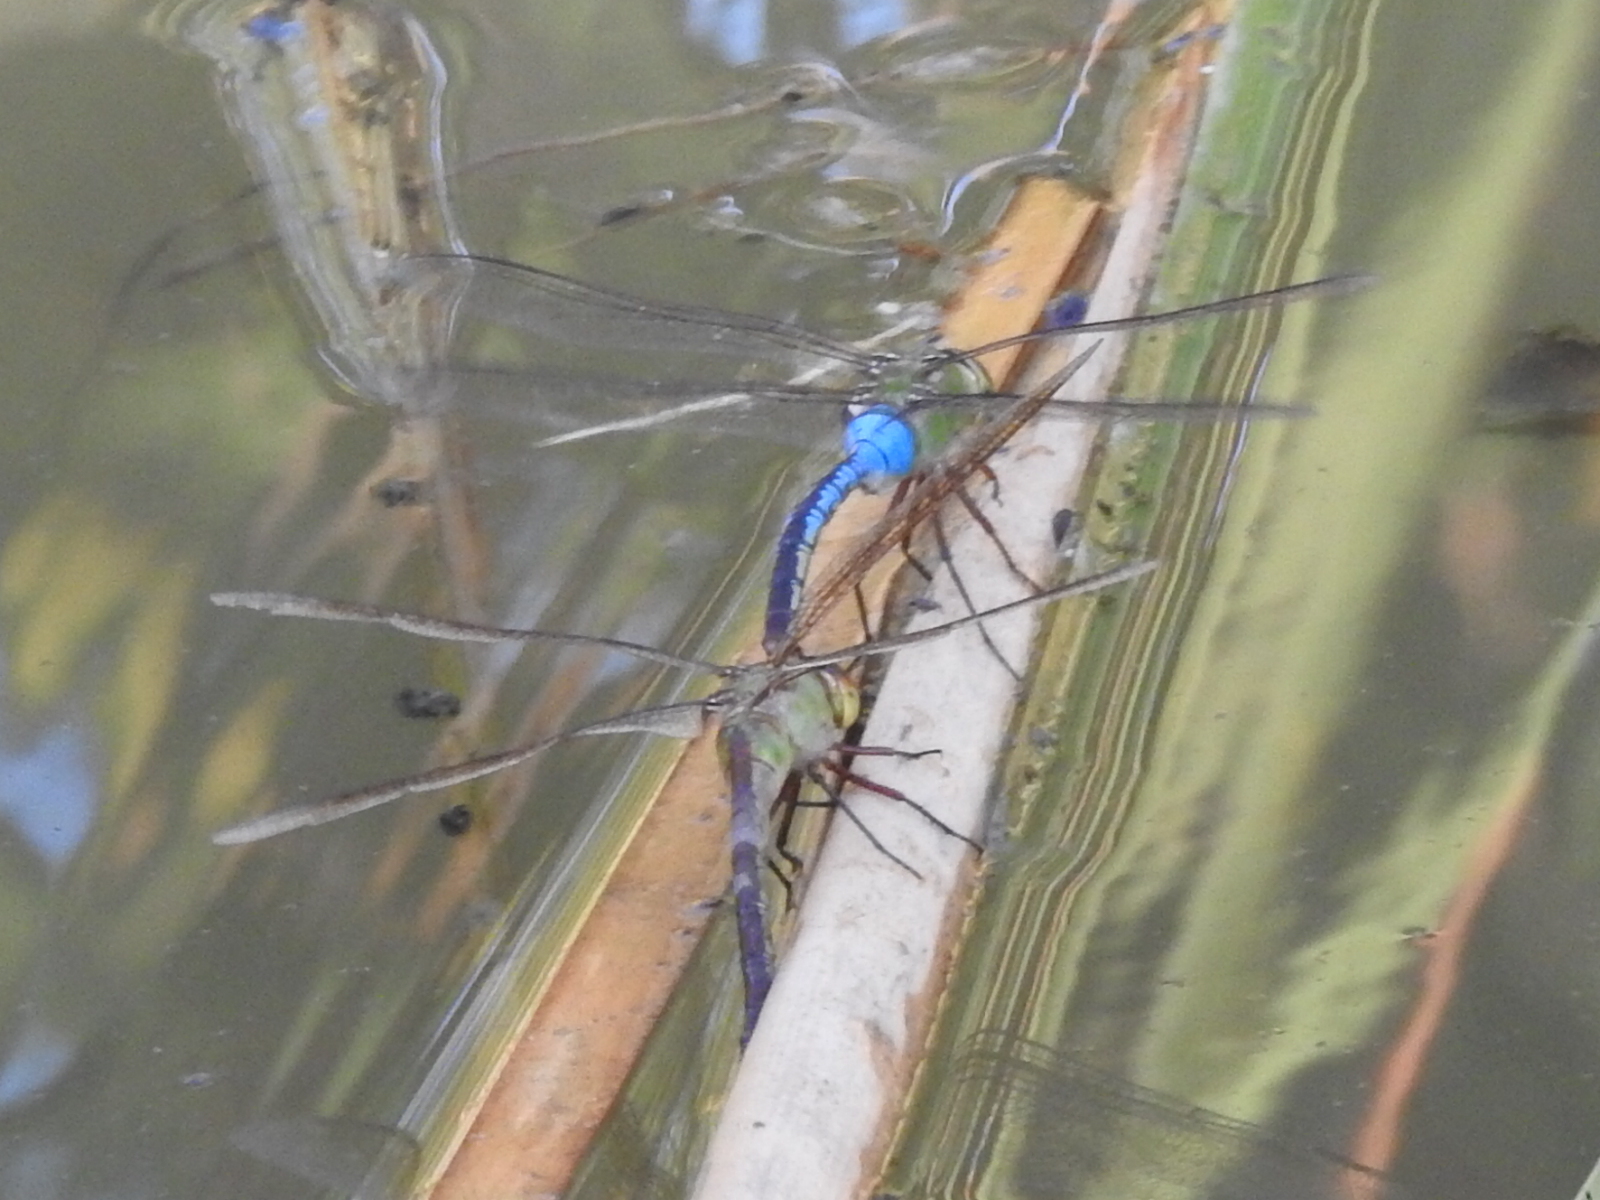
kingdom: Animalia
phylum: Arthropoda
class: Insecta
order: Odonata
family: Aeshnidae
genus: Anax
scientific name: Anax junius
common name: Common green darner
